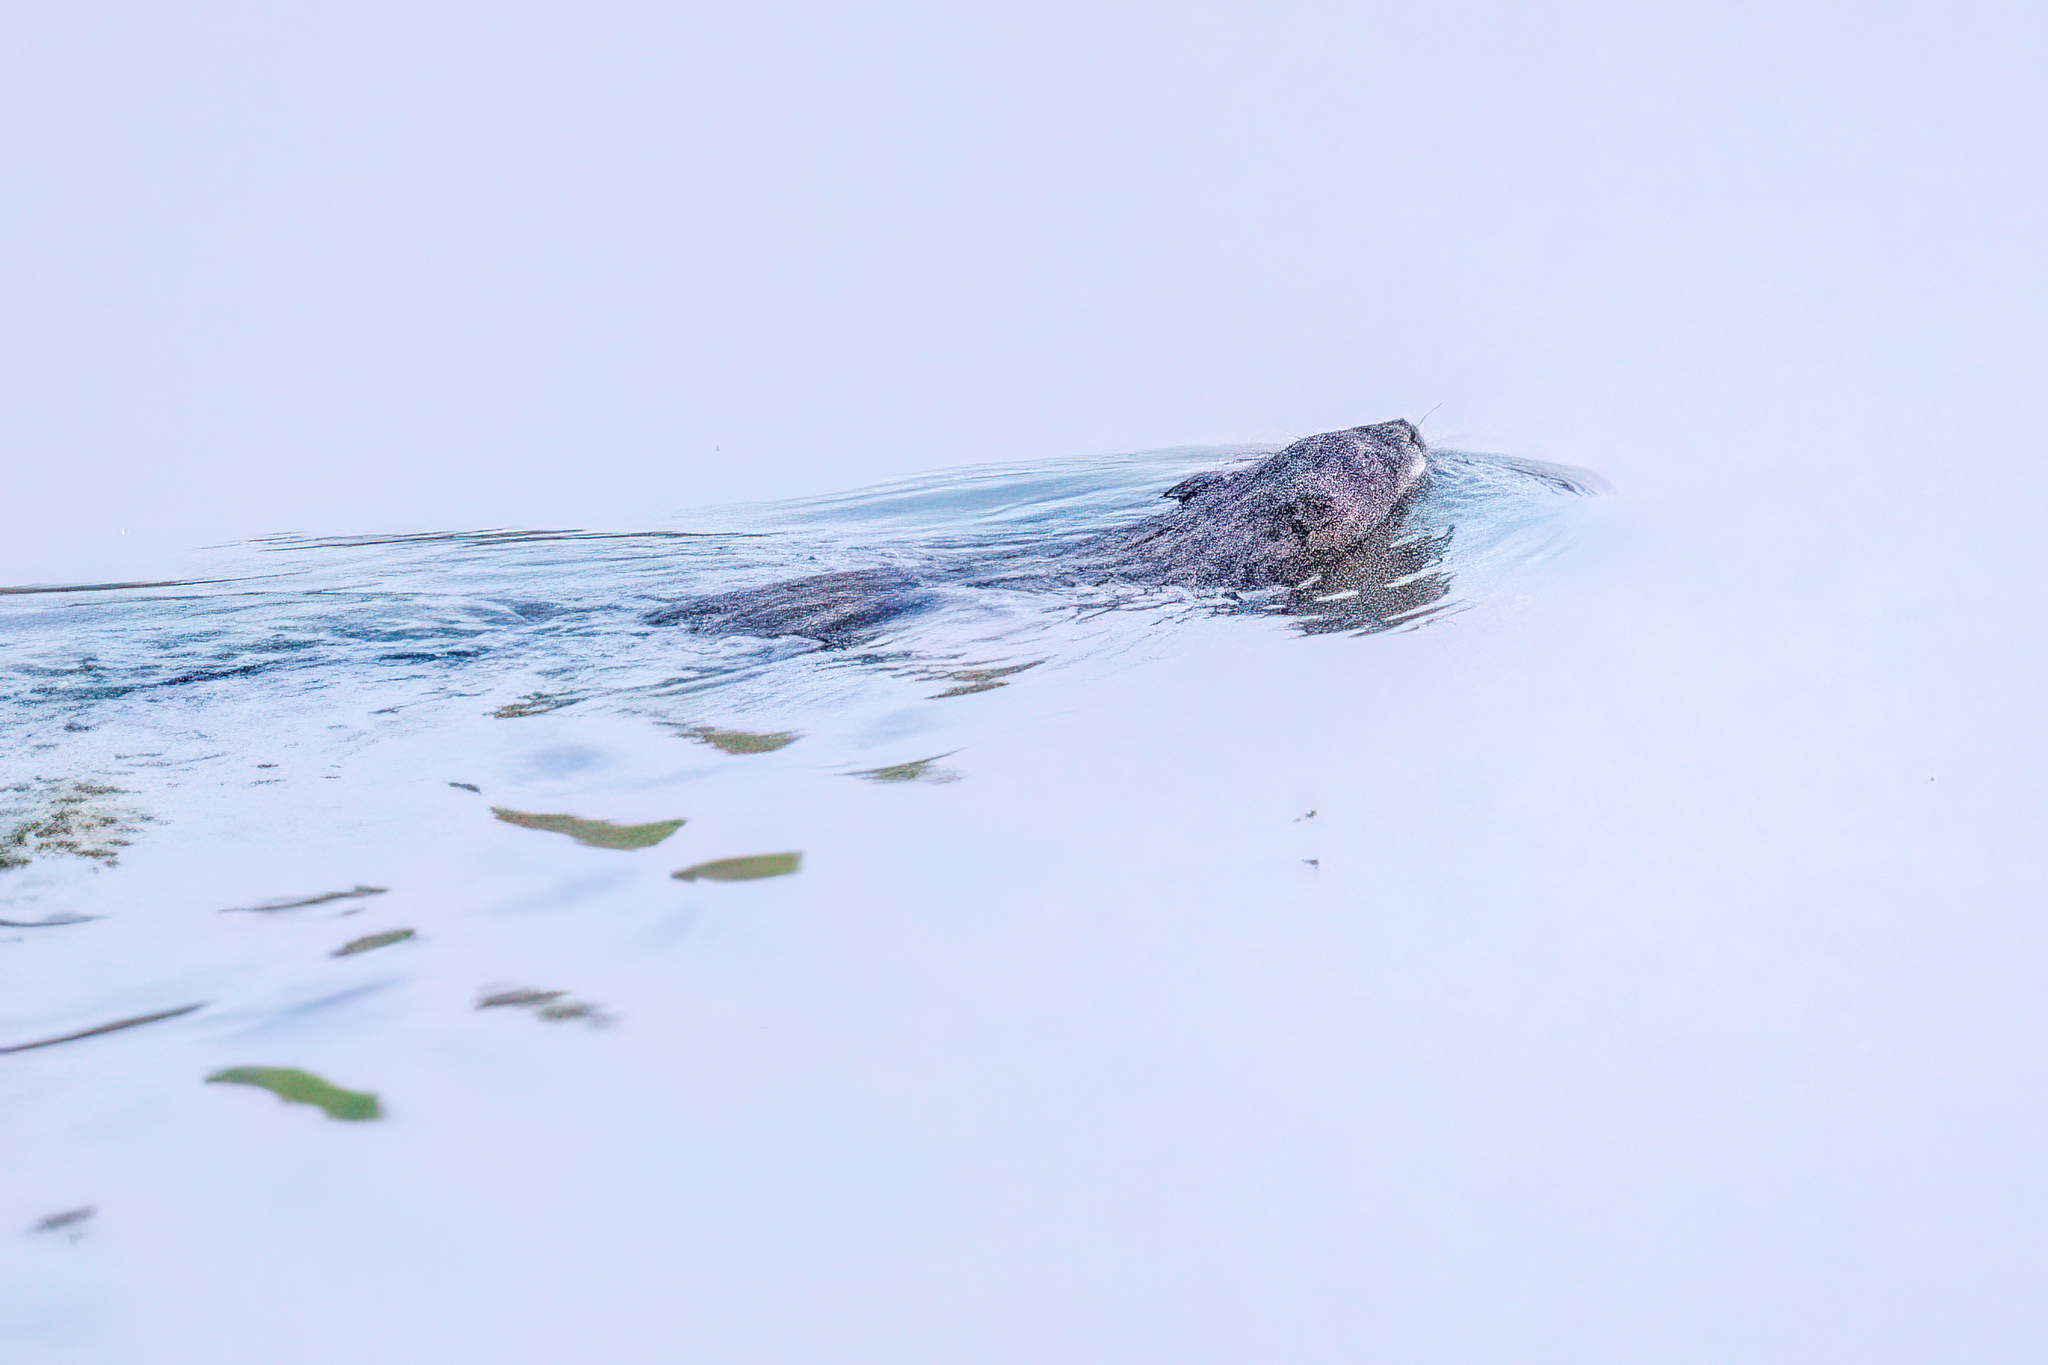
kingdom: Animalia
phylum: Chordata
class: Mammalia
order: Rodentia
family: Cricetidae
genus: Ondatra
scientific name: Ondatra zibethicus
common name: Muskrat
